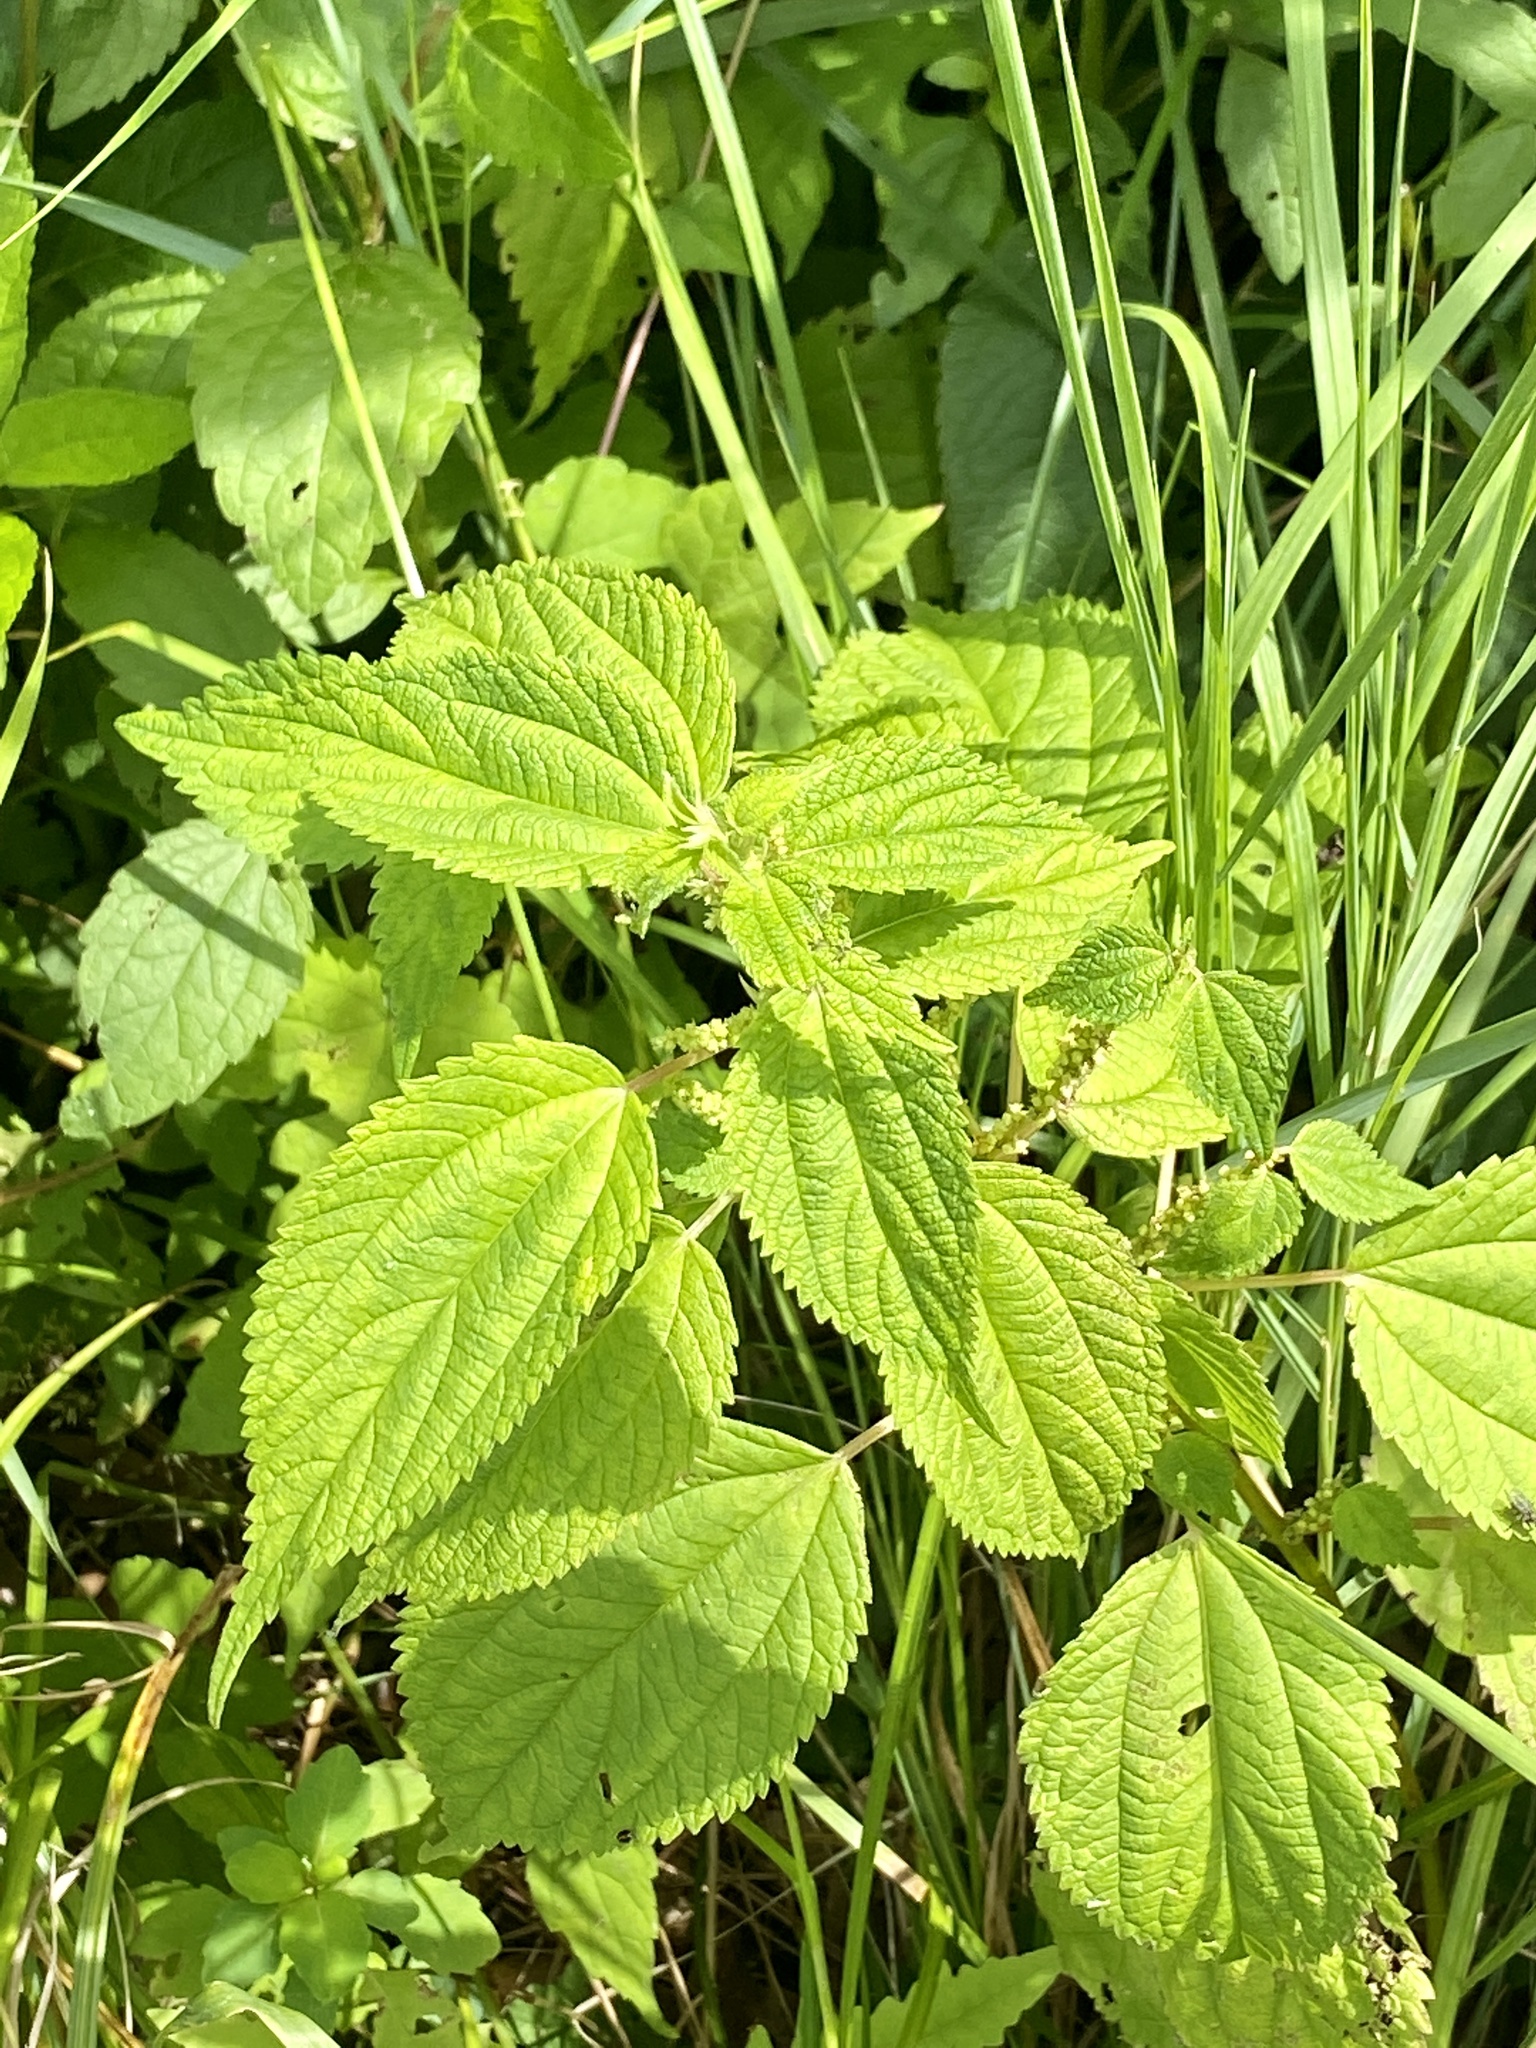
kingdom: Plantae
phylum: Tracheophyta
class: Magnoliopsida
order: Rosales
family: Urticaceae
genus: Boehmeria
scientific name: Boehmeria cylindrica
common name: Bog-hemp
